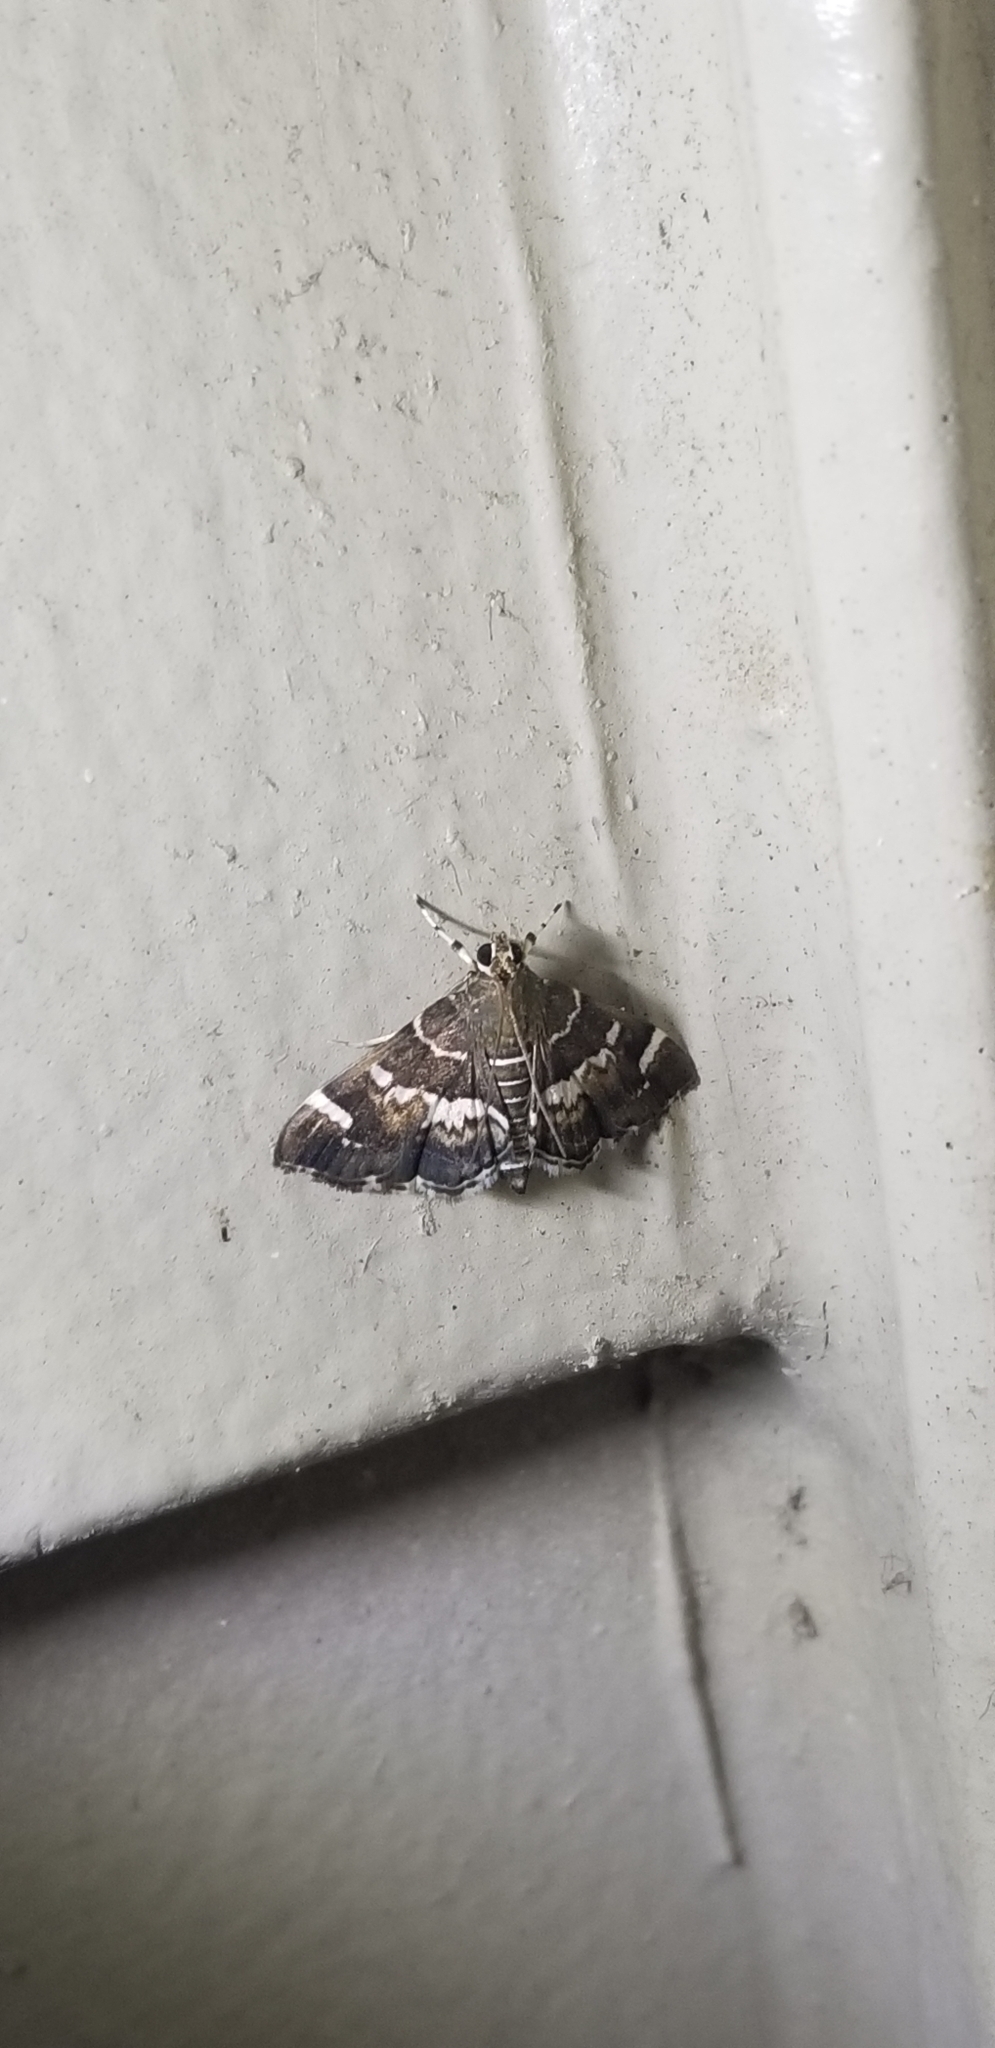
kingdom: Animalia
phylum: Arthropoda
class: Insecta
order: Lepidoptera
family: Crambidae
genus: Hymenia
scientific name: Hymenia perspectalis
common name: Spotted beet webworm
